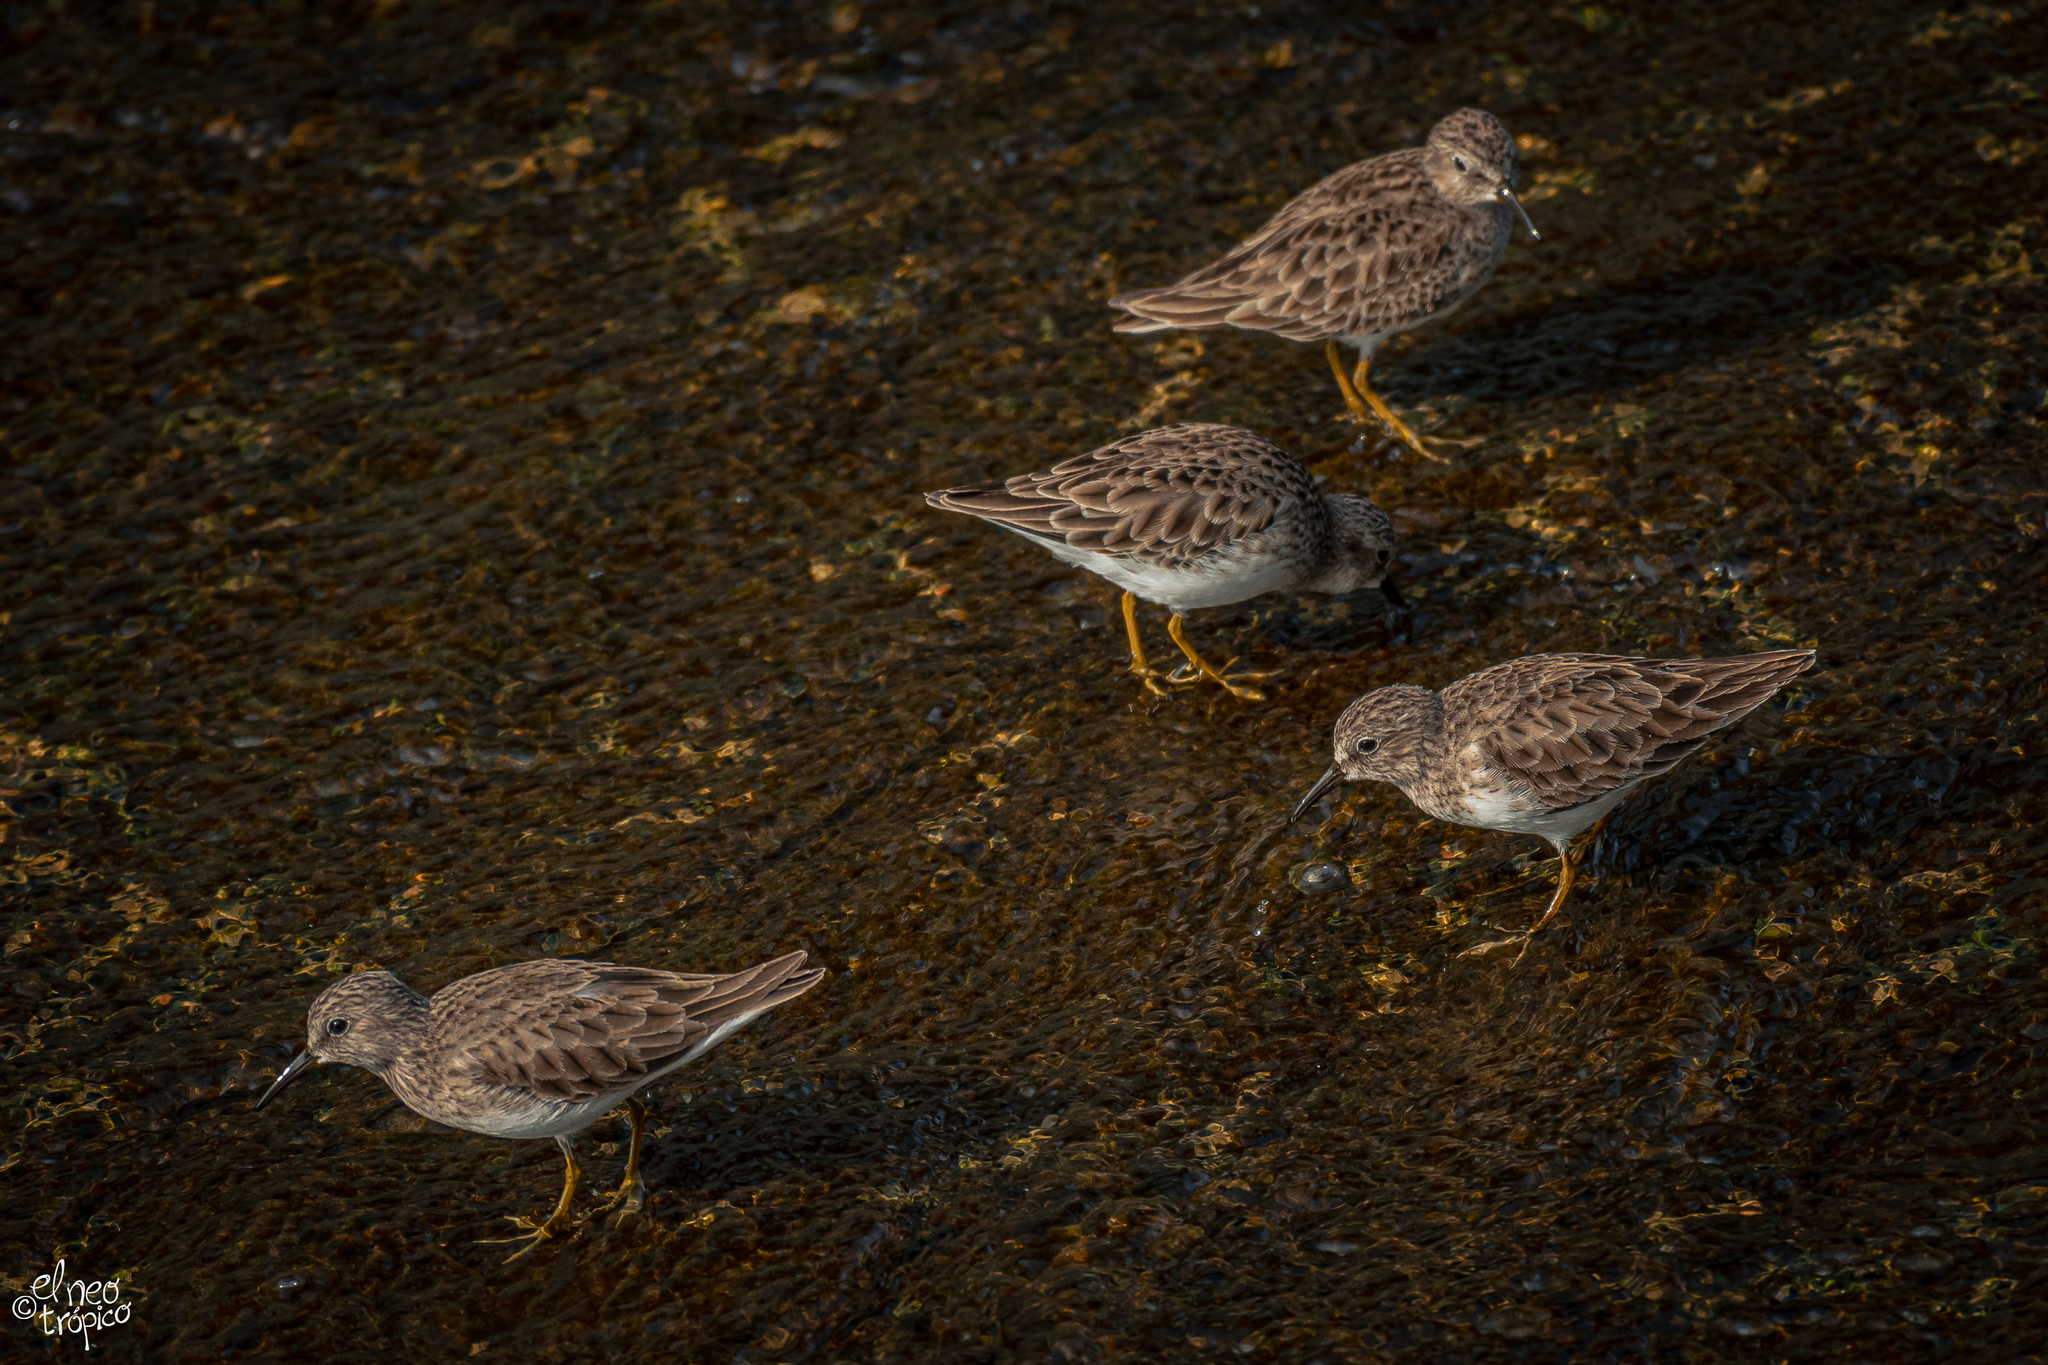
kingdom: Animalia
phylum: Chordata
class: Aves
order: Charadriiformes
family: Scolopacidae
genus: Calidris
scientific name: Calidris minutilla
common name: Least sandpiper
